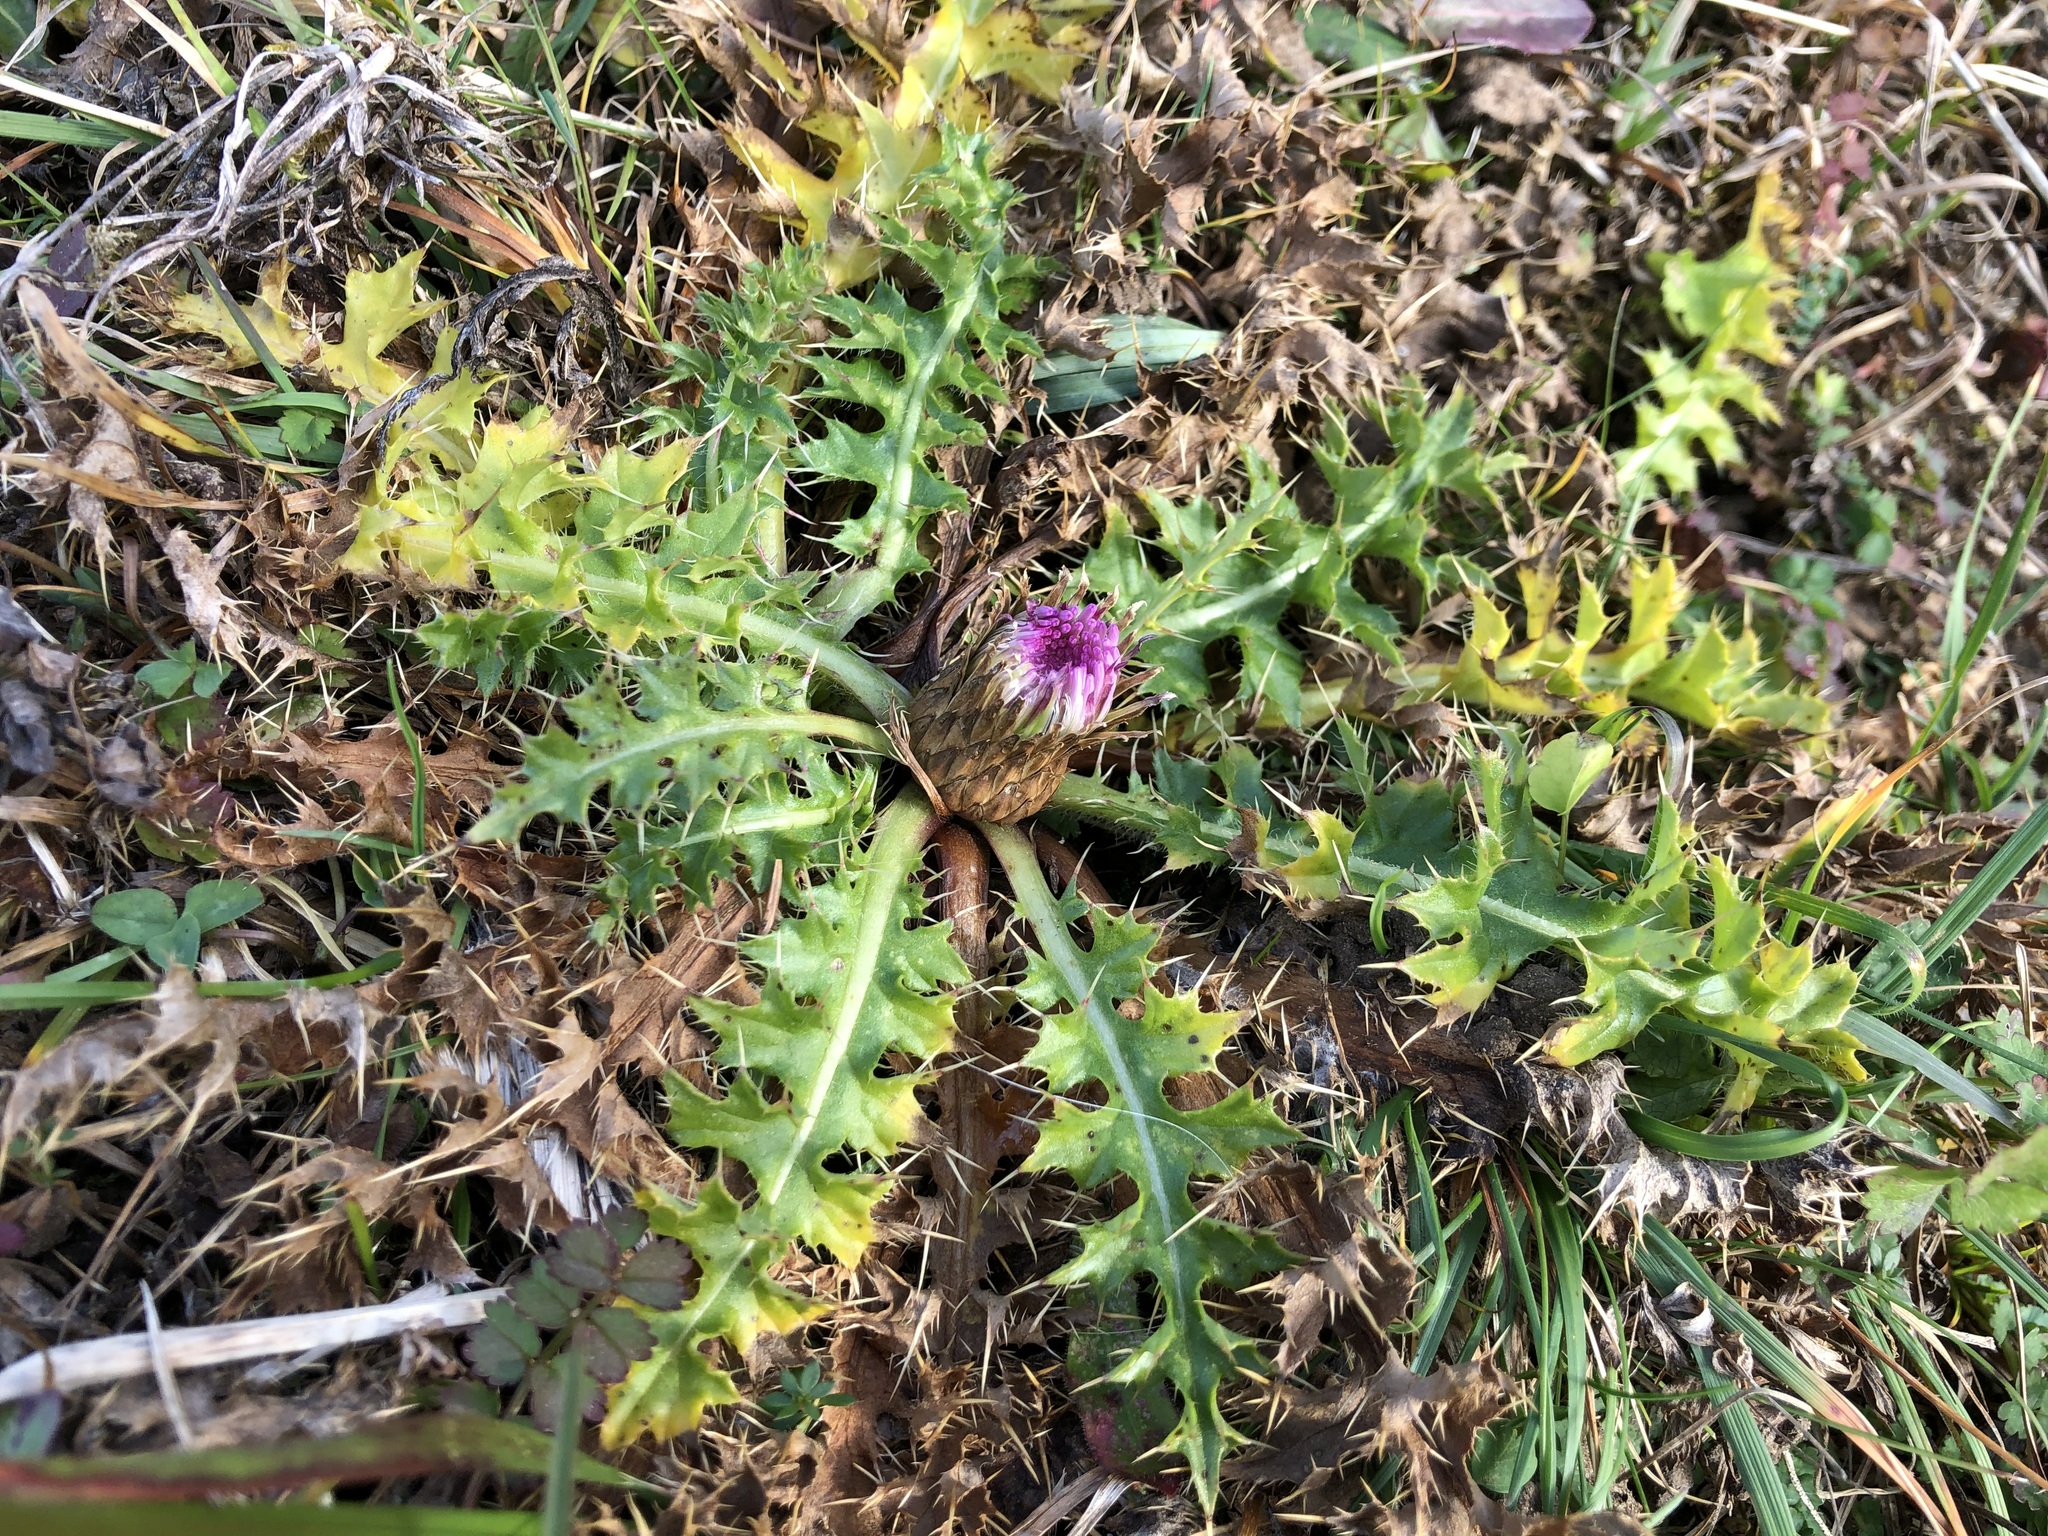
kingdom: Plantae
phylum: Tracheophyta
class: Magnoliopsida
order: Asterales
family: Asteraceae
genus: Cirsium
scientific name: Cirsium acaulon
